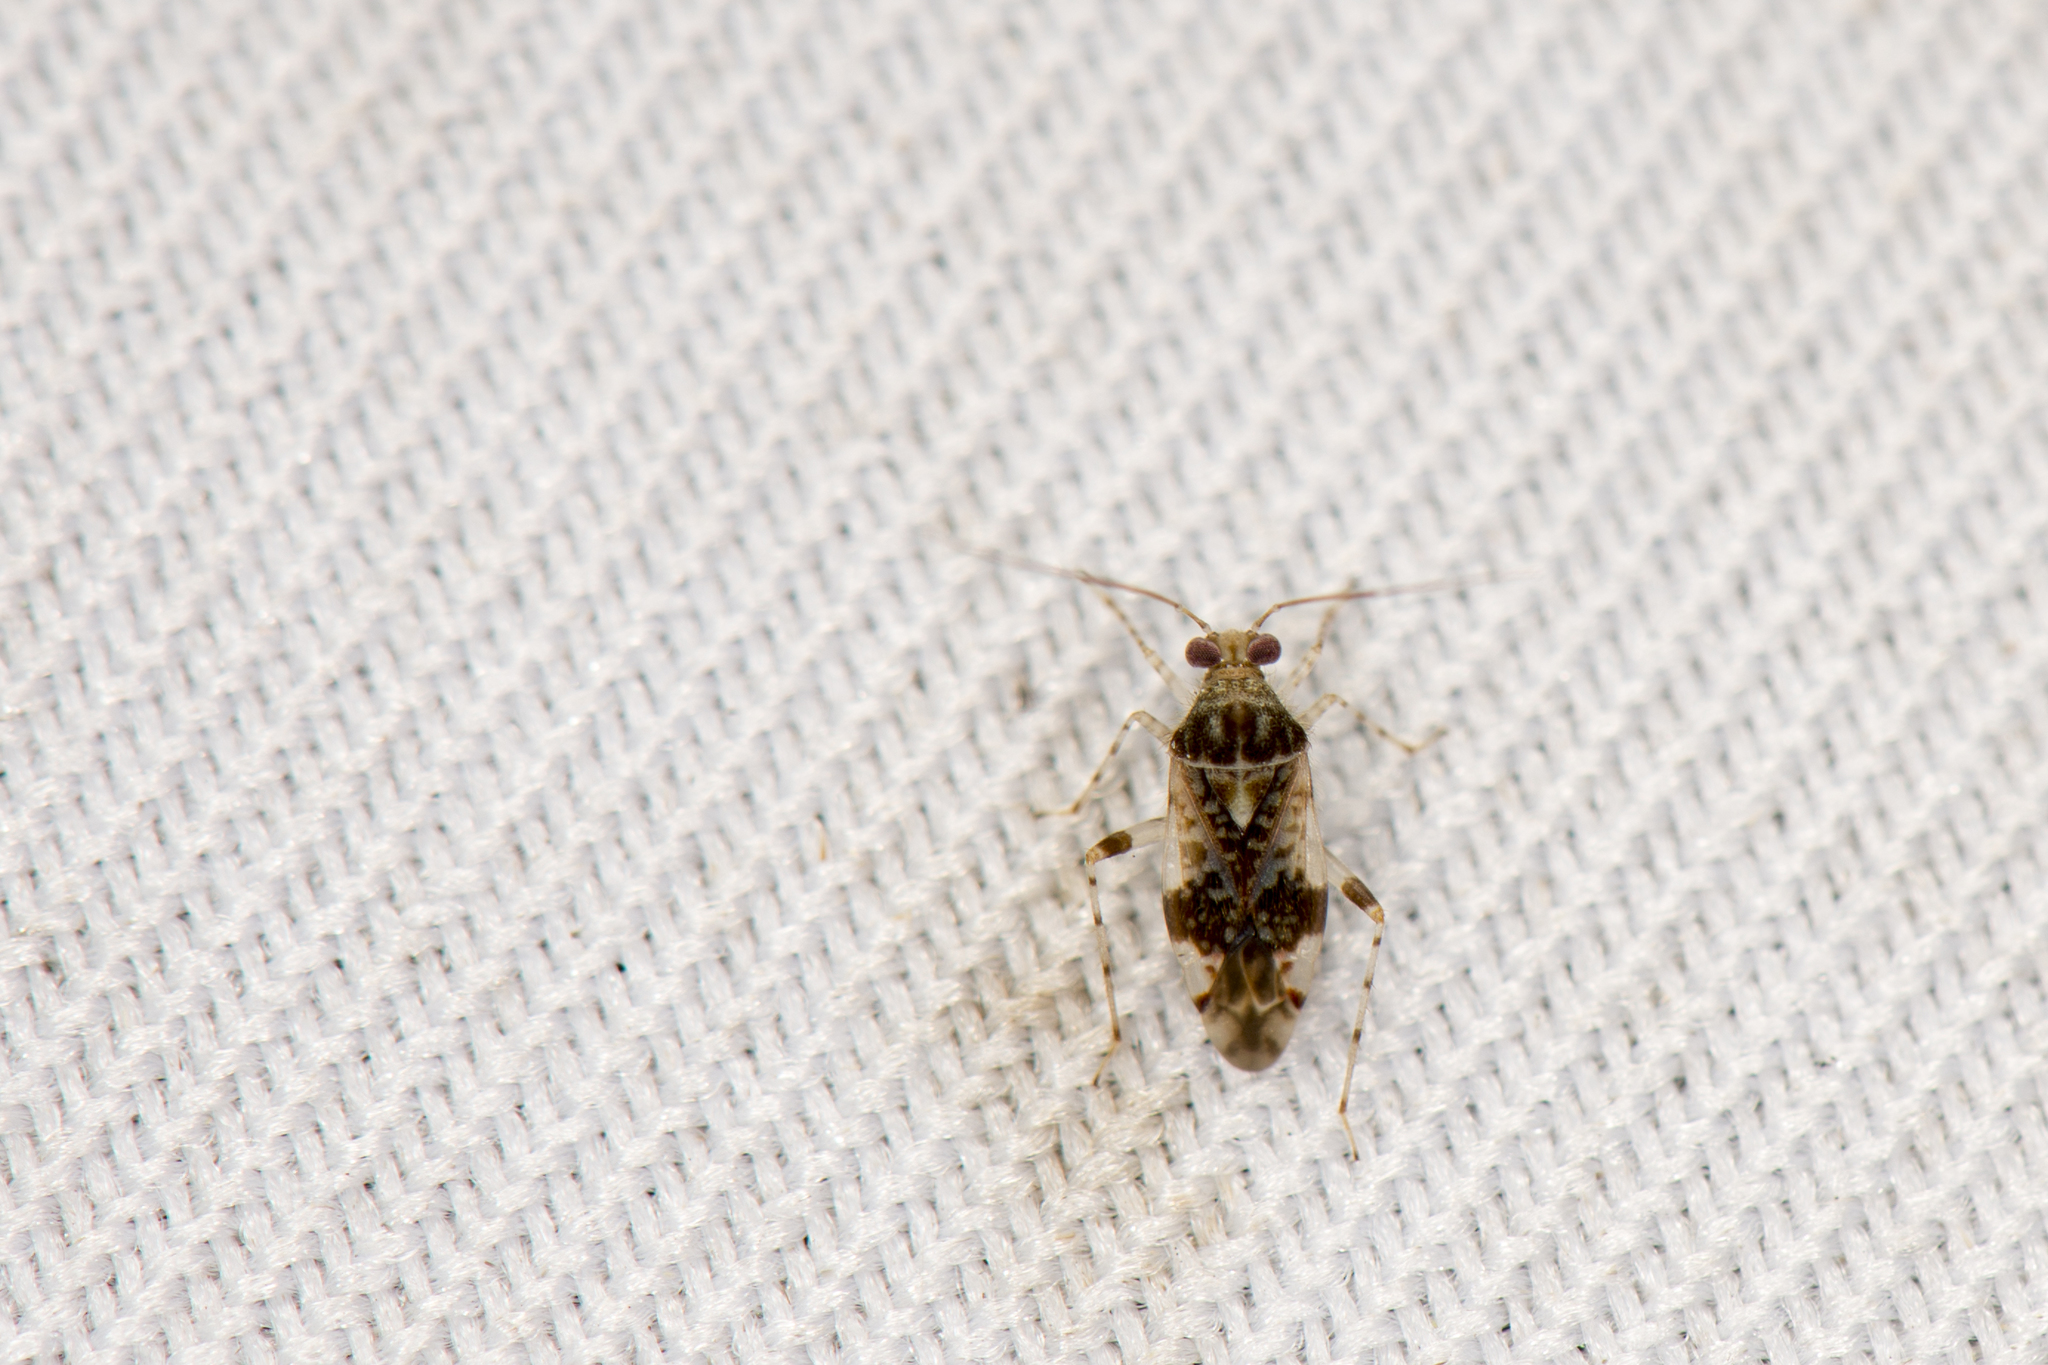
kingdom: Animalia
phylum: Arthropoda
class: Insecta
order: Hemiptera
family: Miridae
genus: Tinginotopsis
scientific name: Tinginotopsis oryzae
